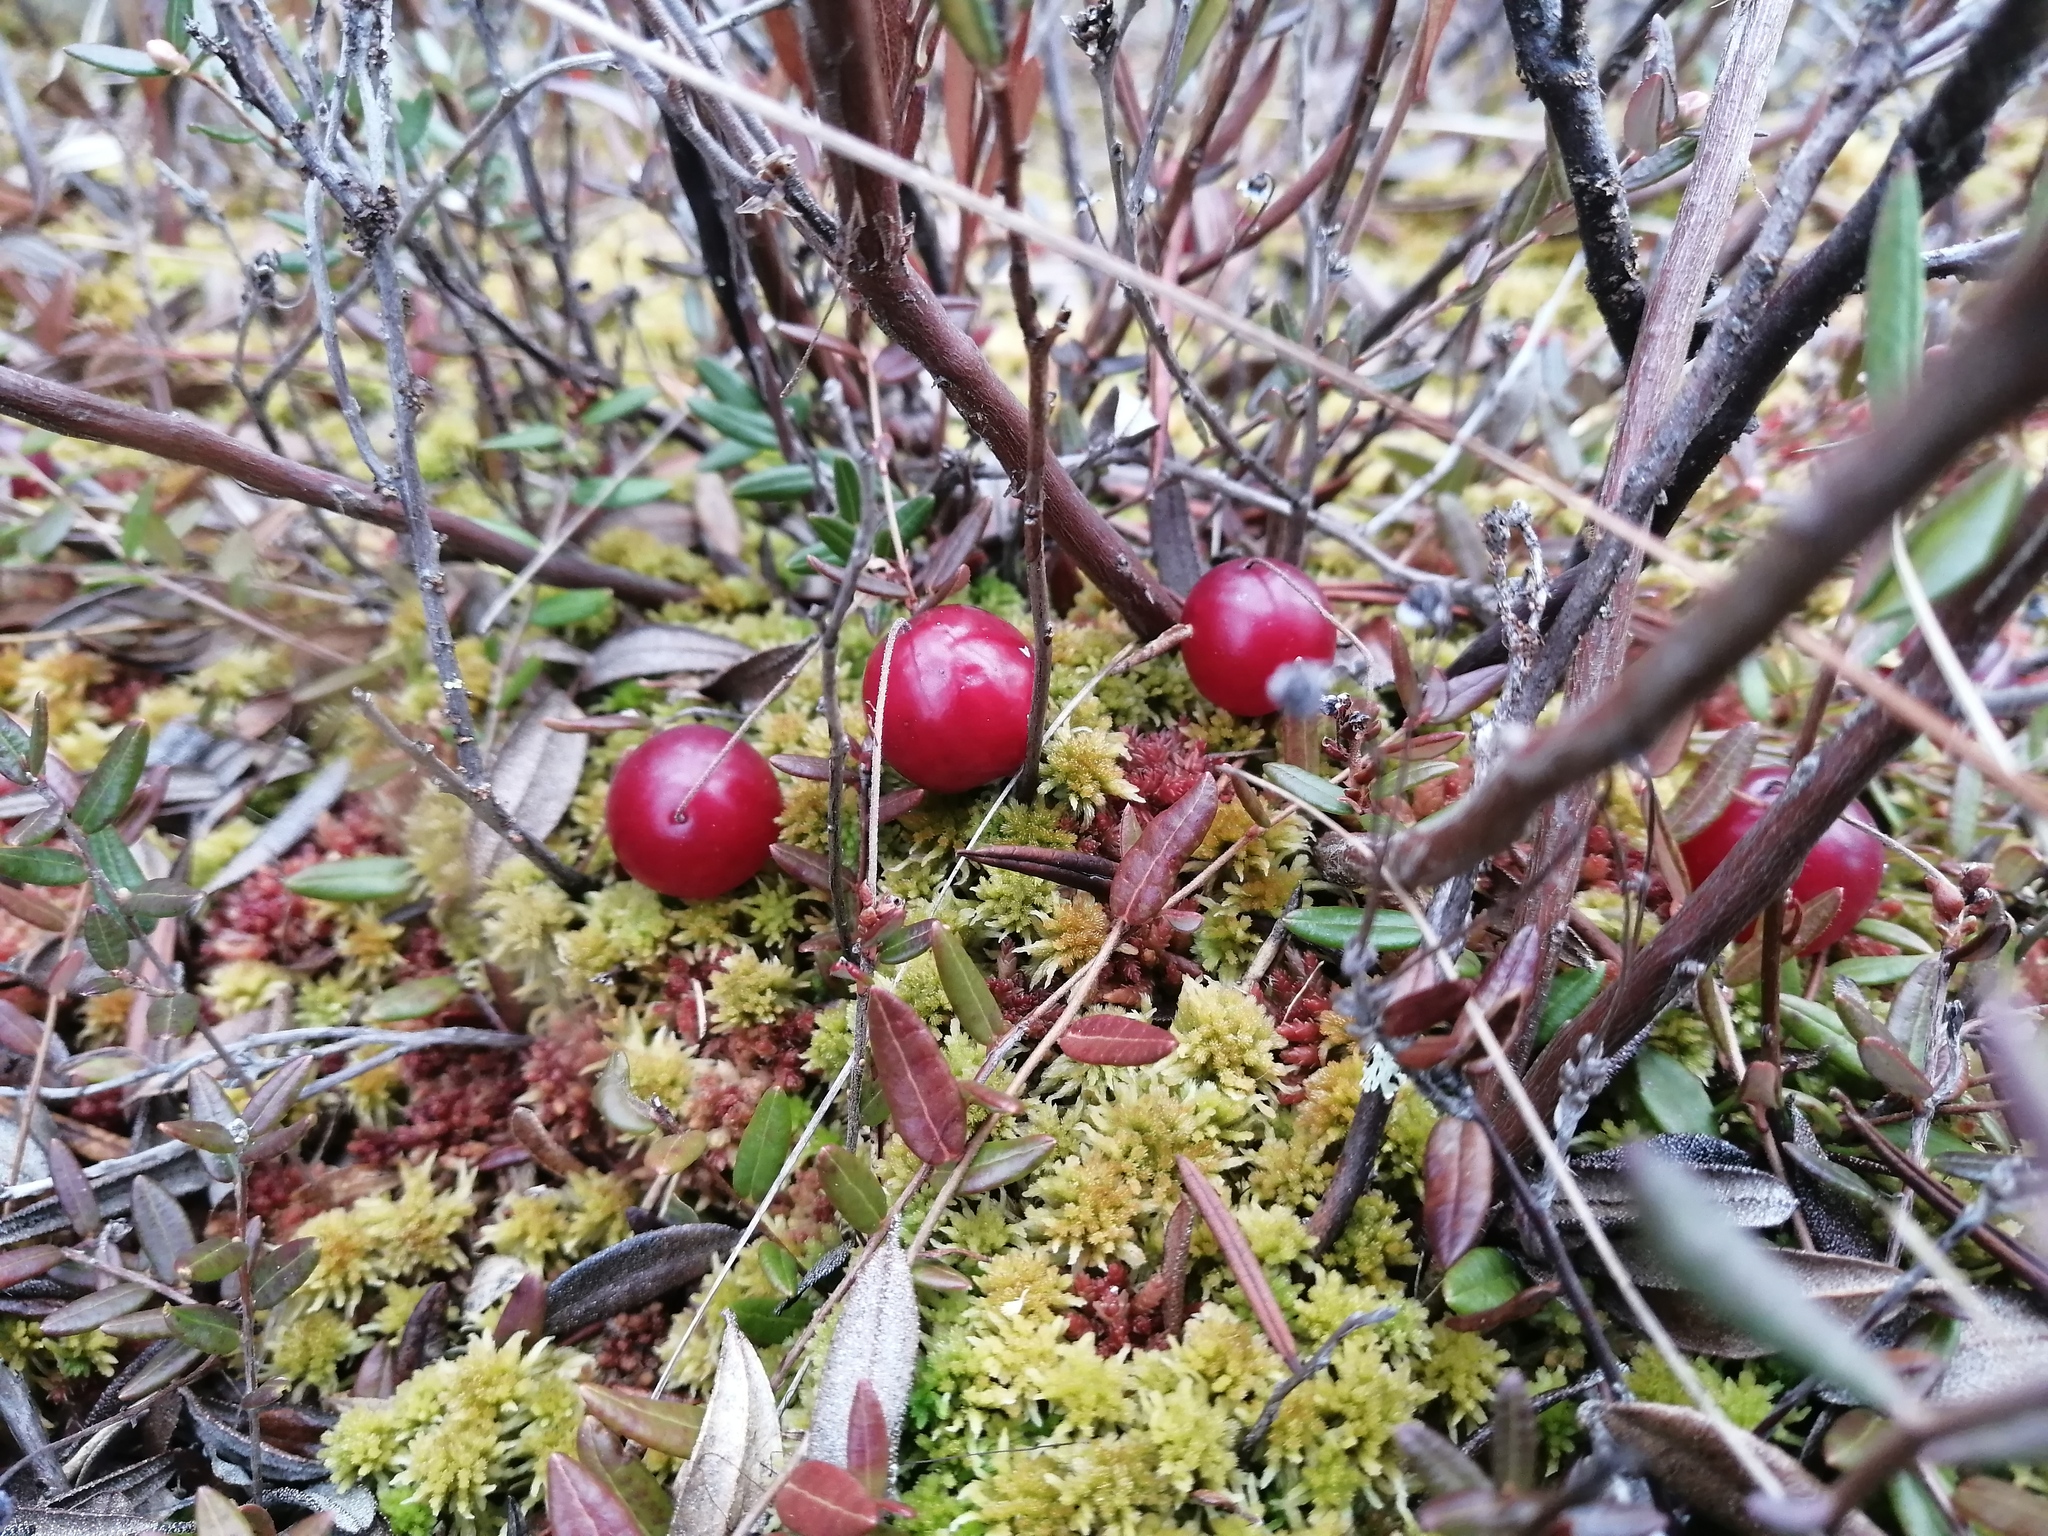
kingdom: Plantae
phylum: Tracheophyta
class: Magnoliopsida
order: Ericales
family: Ericaceae
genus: Vaccinium
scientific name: Vaccinium oxycoccos
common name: Cranberry
